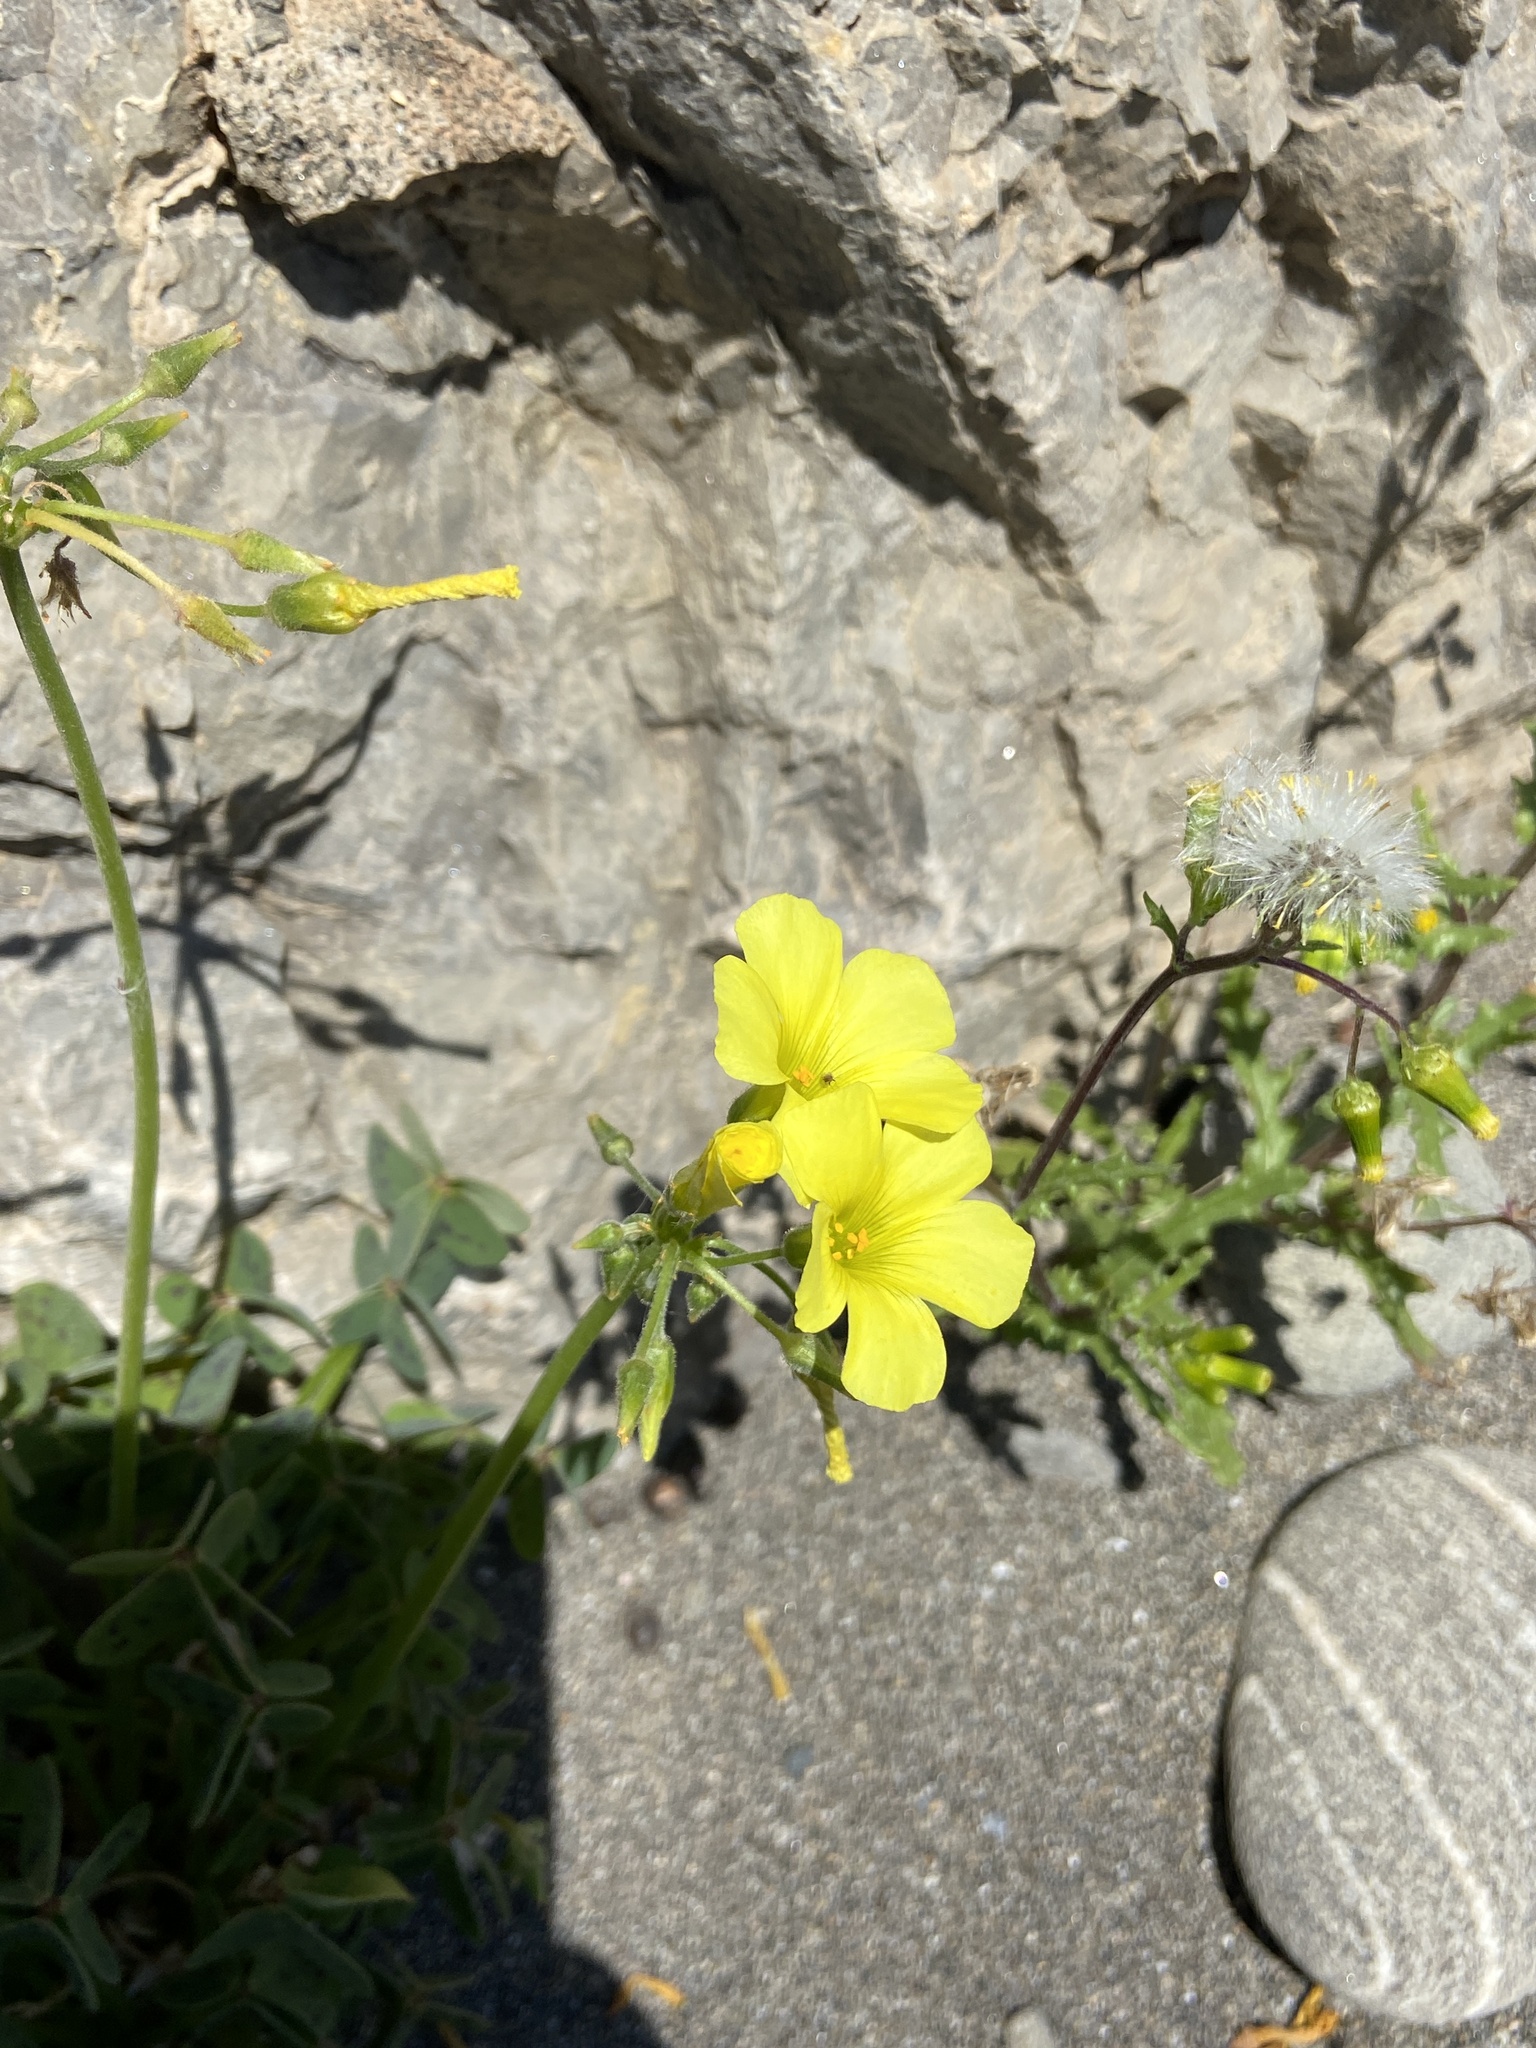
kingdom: Plantae
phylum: Tracheophyta
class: Magnoliopsida
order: Oxalidales
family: Oxalidaceae
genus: Oxalis
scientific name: Oxalis pes-caprae
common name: Bermuda-buttercup
